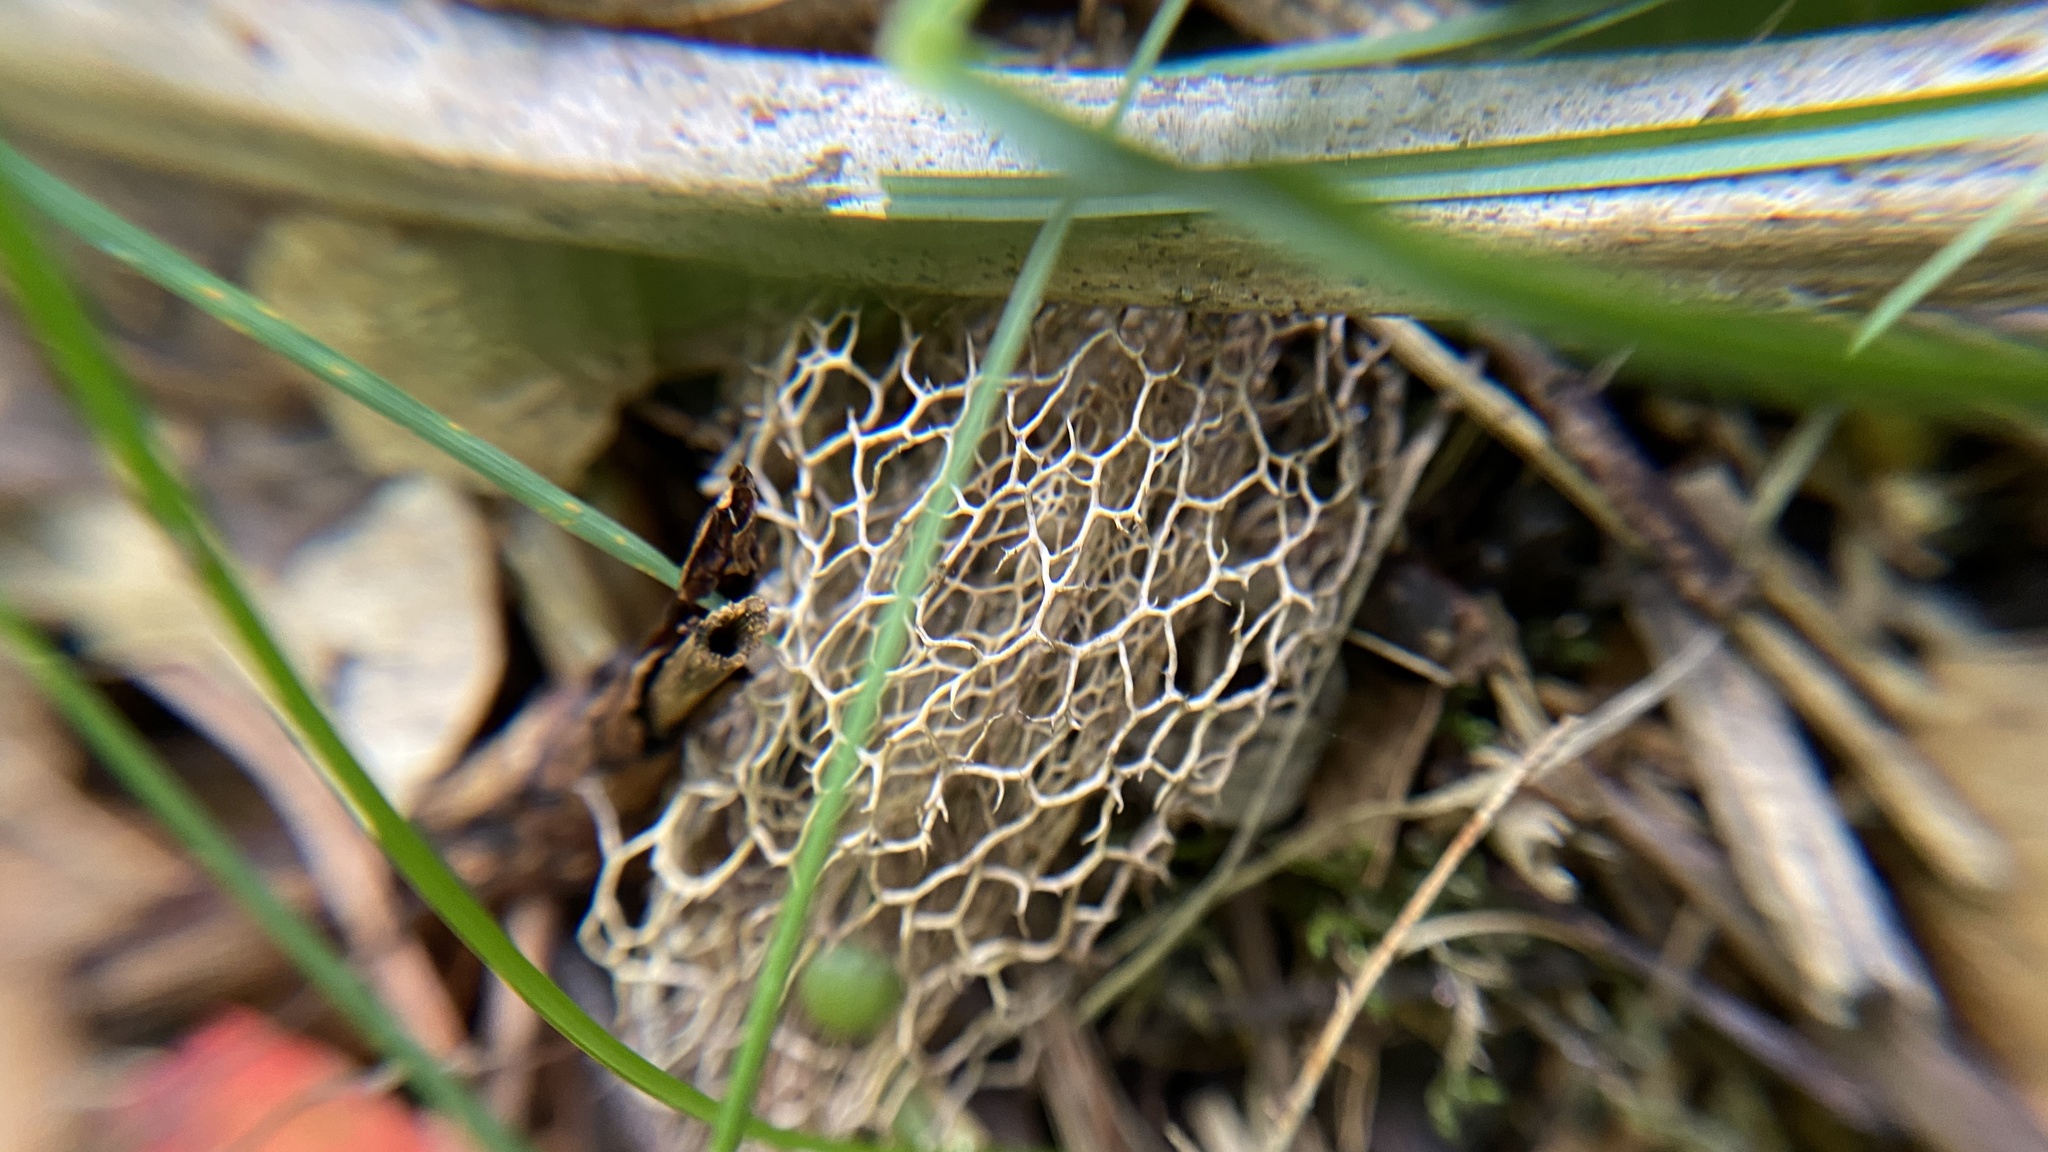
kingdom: Plantae
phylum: Tracheophyta
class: Magnoliopsida
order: Cucurbitales
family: Cucurbitaceae
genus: Echinocystis
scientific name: Echinocystis lobata
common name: Wild cucumber
